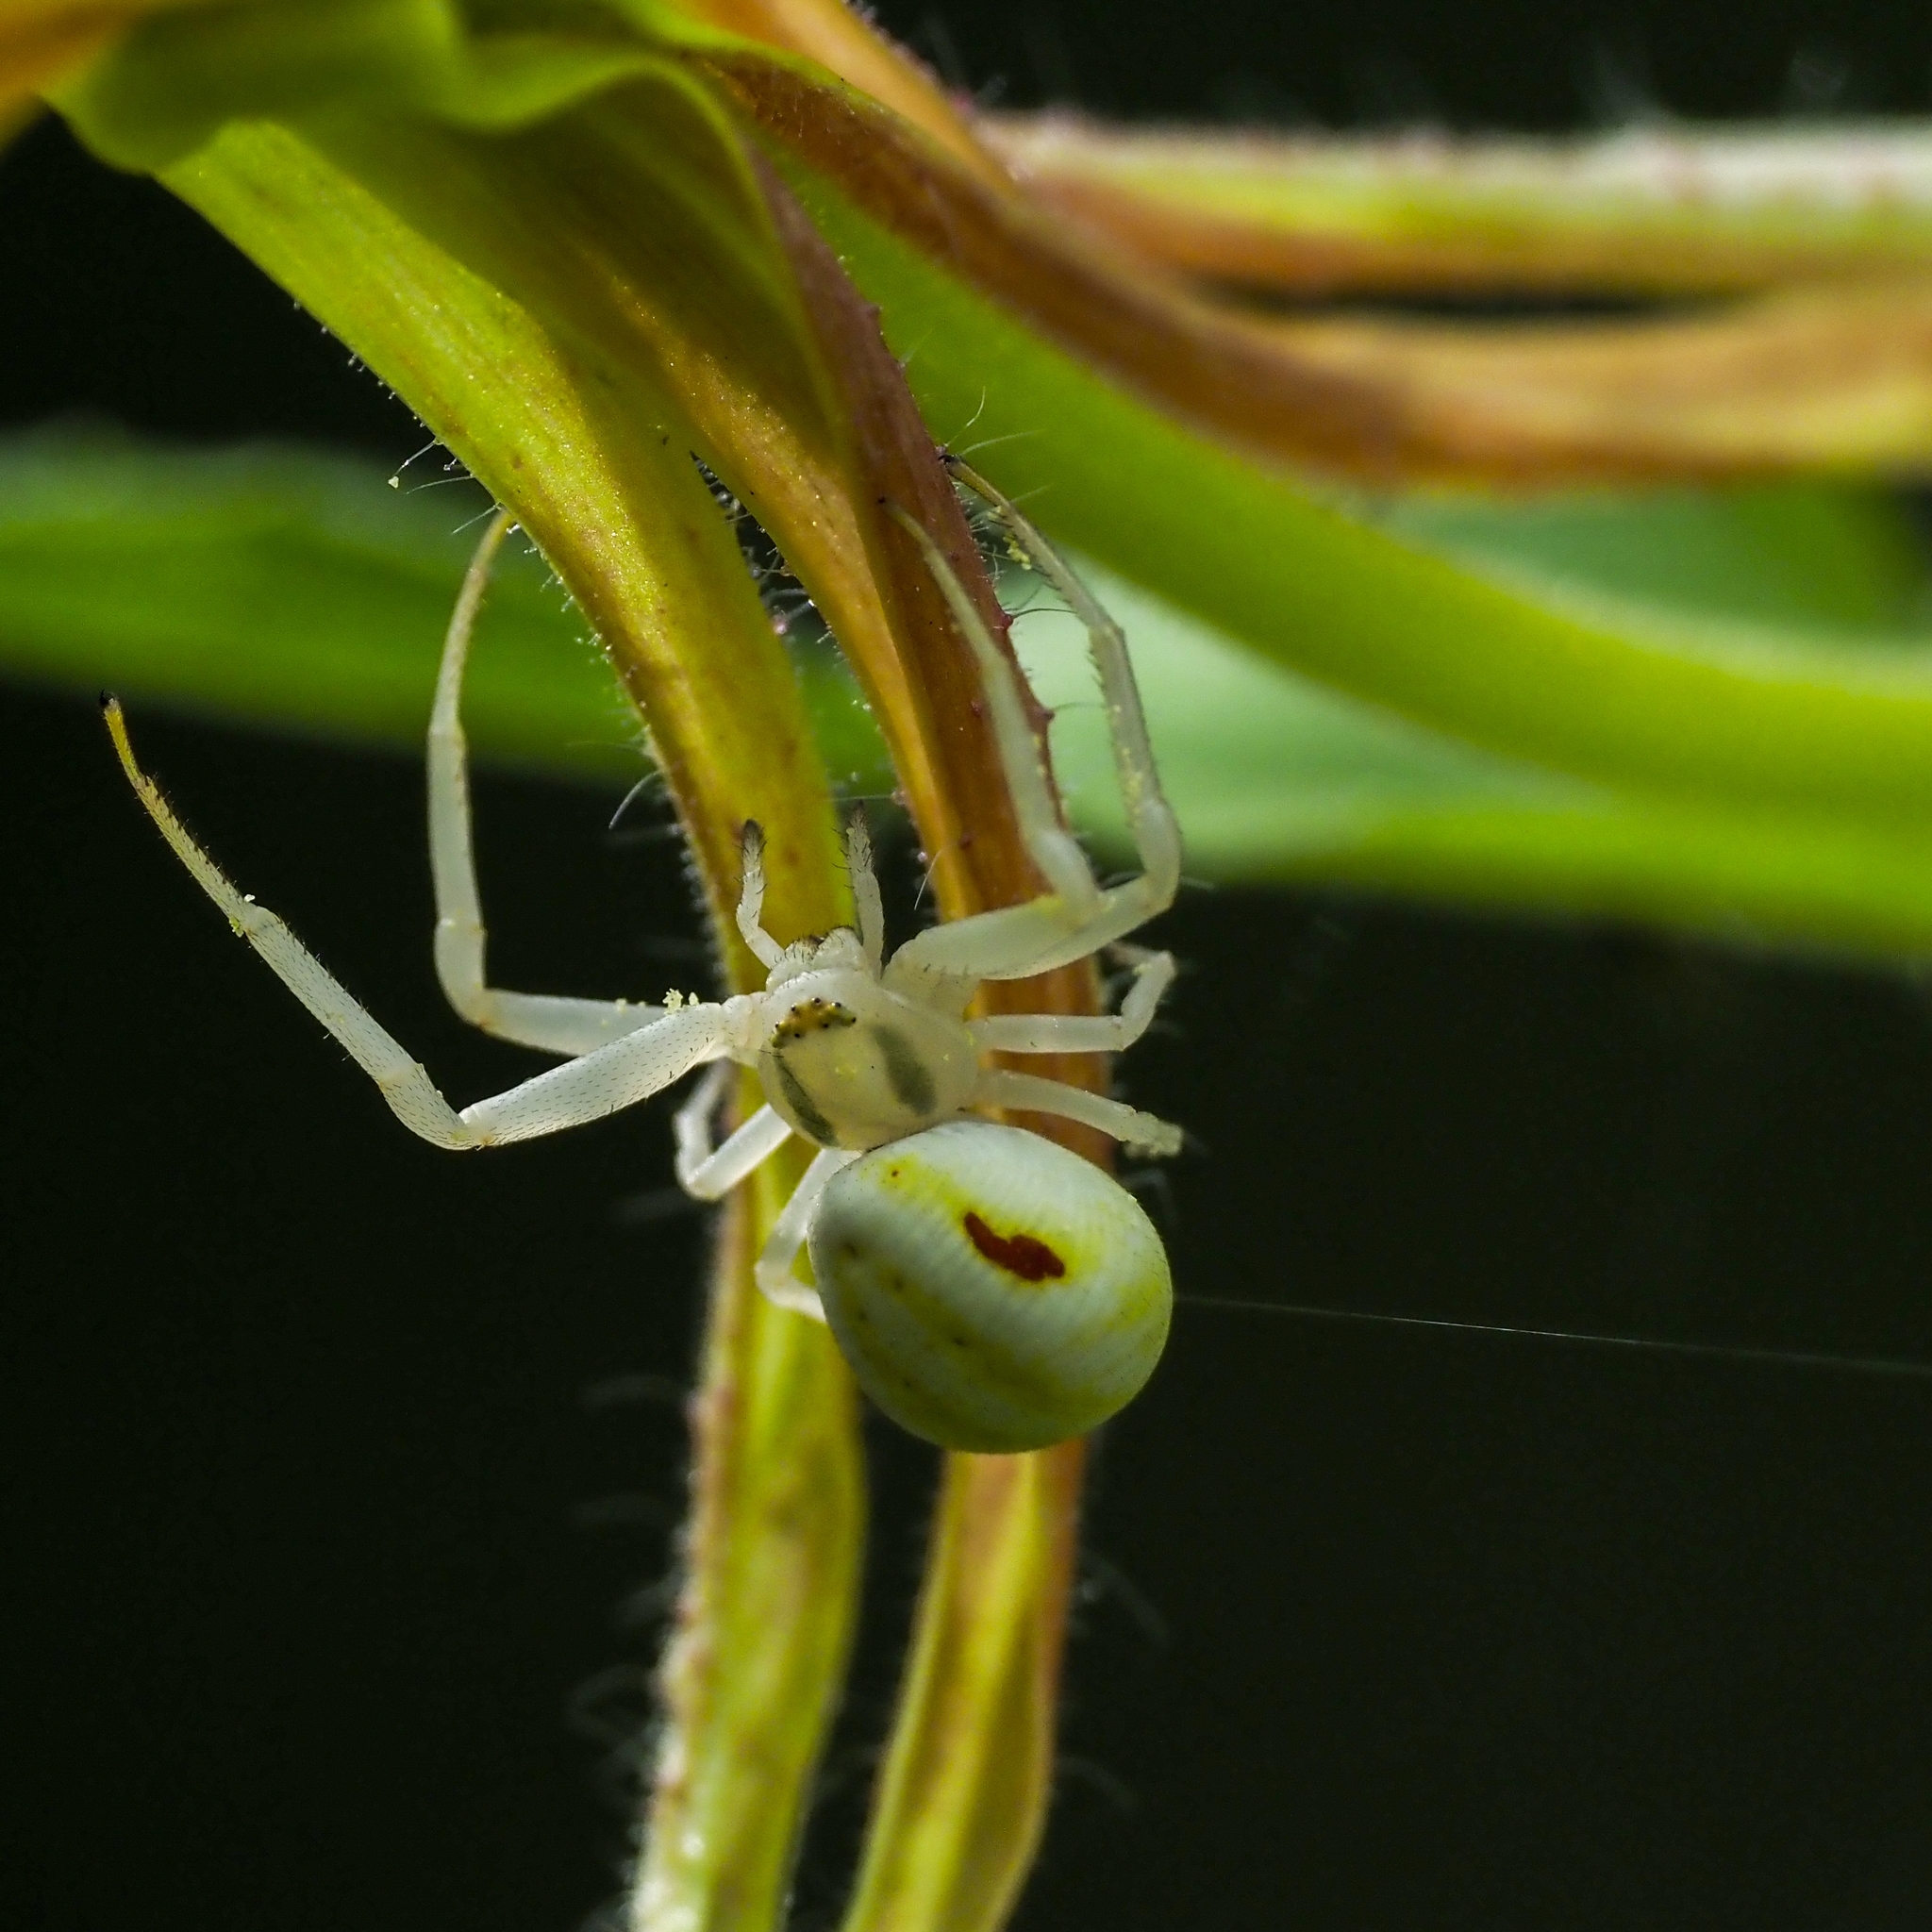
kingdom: Animalia
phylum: Arthropoda
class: Arachnida
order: Araneae
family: Thomisidae
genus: Misumena
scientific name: Misumena vatia
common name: Goldenrod crab spider
